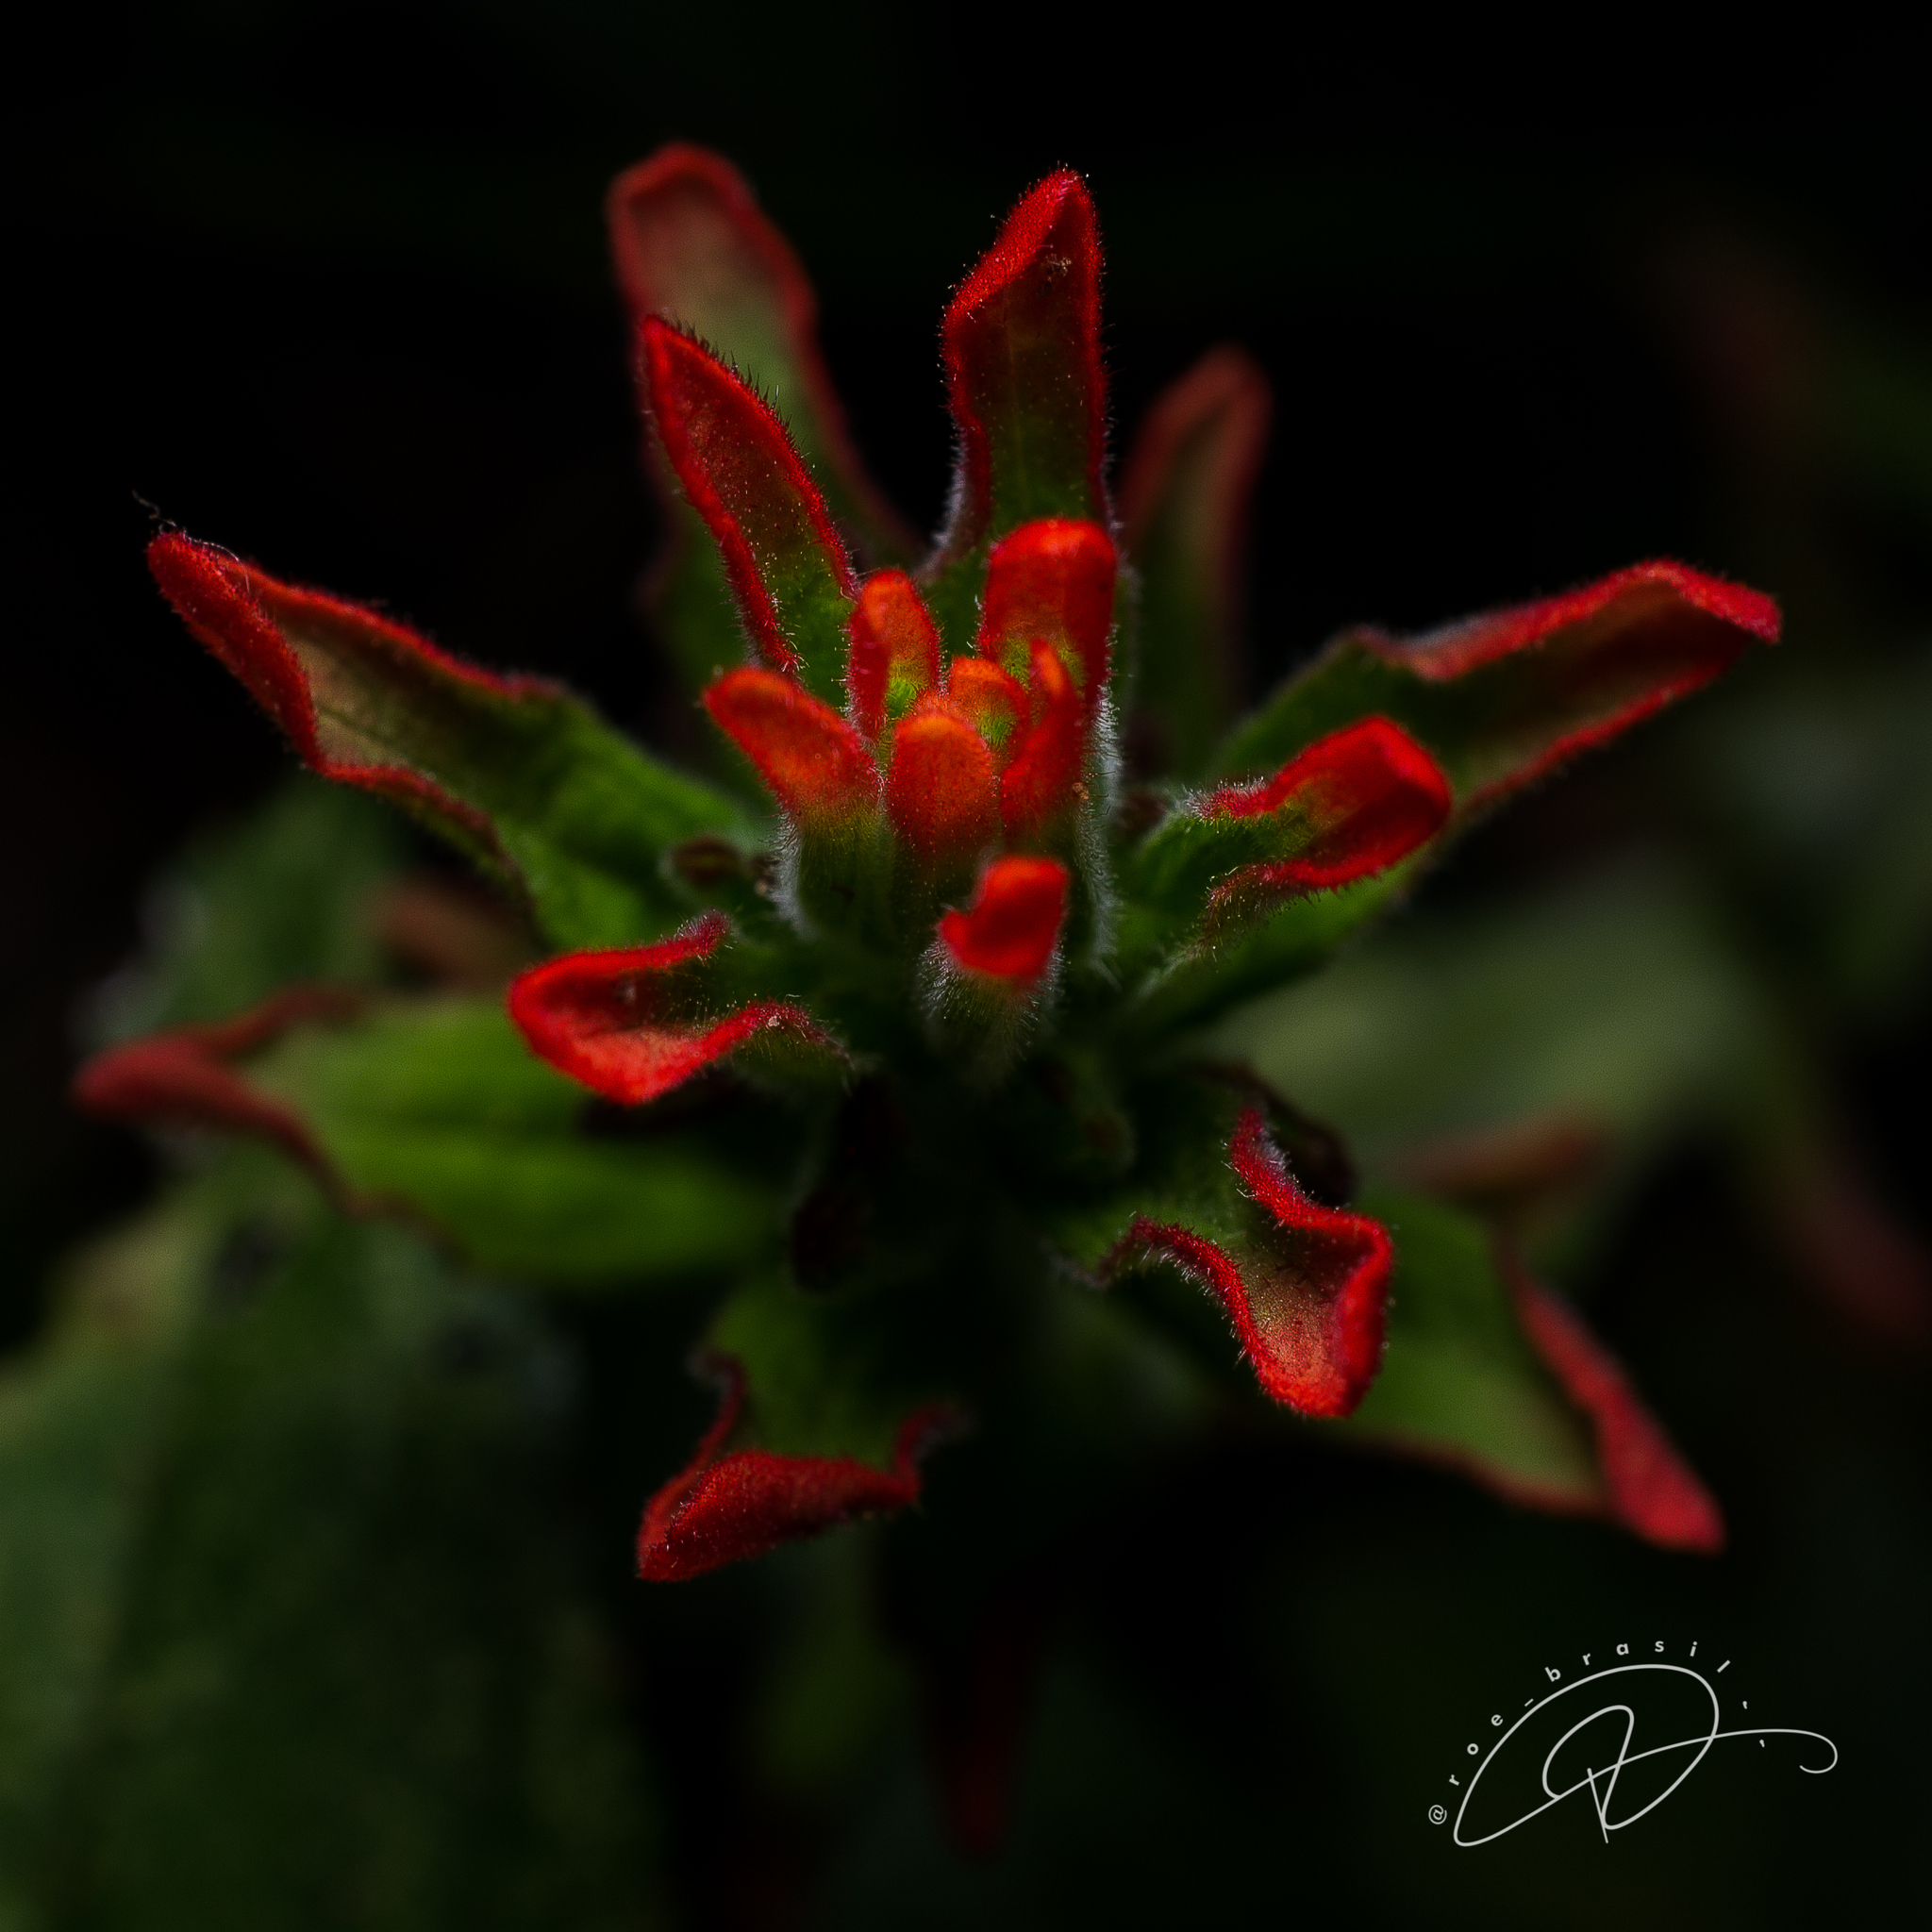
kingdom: Plantae
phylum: Tracheophyta
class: Magnoliopsida
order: Lamiales
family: Orobanchaceae
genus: Castilleja
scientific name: Castilleja arvensis
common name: Indian paintbrush
